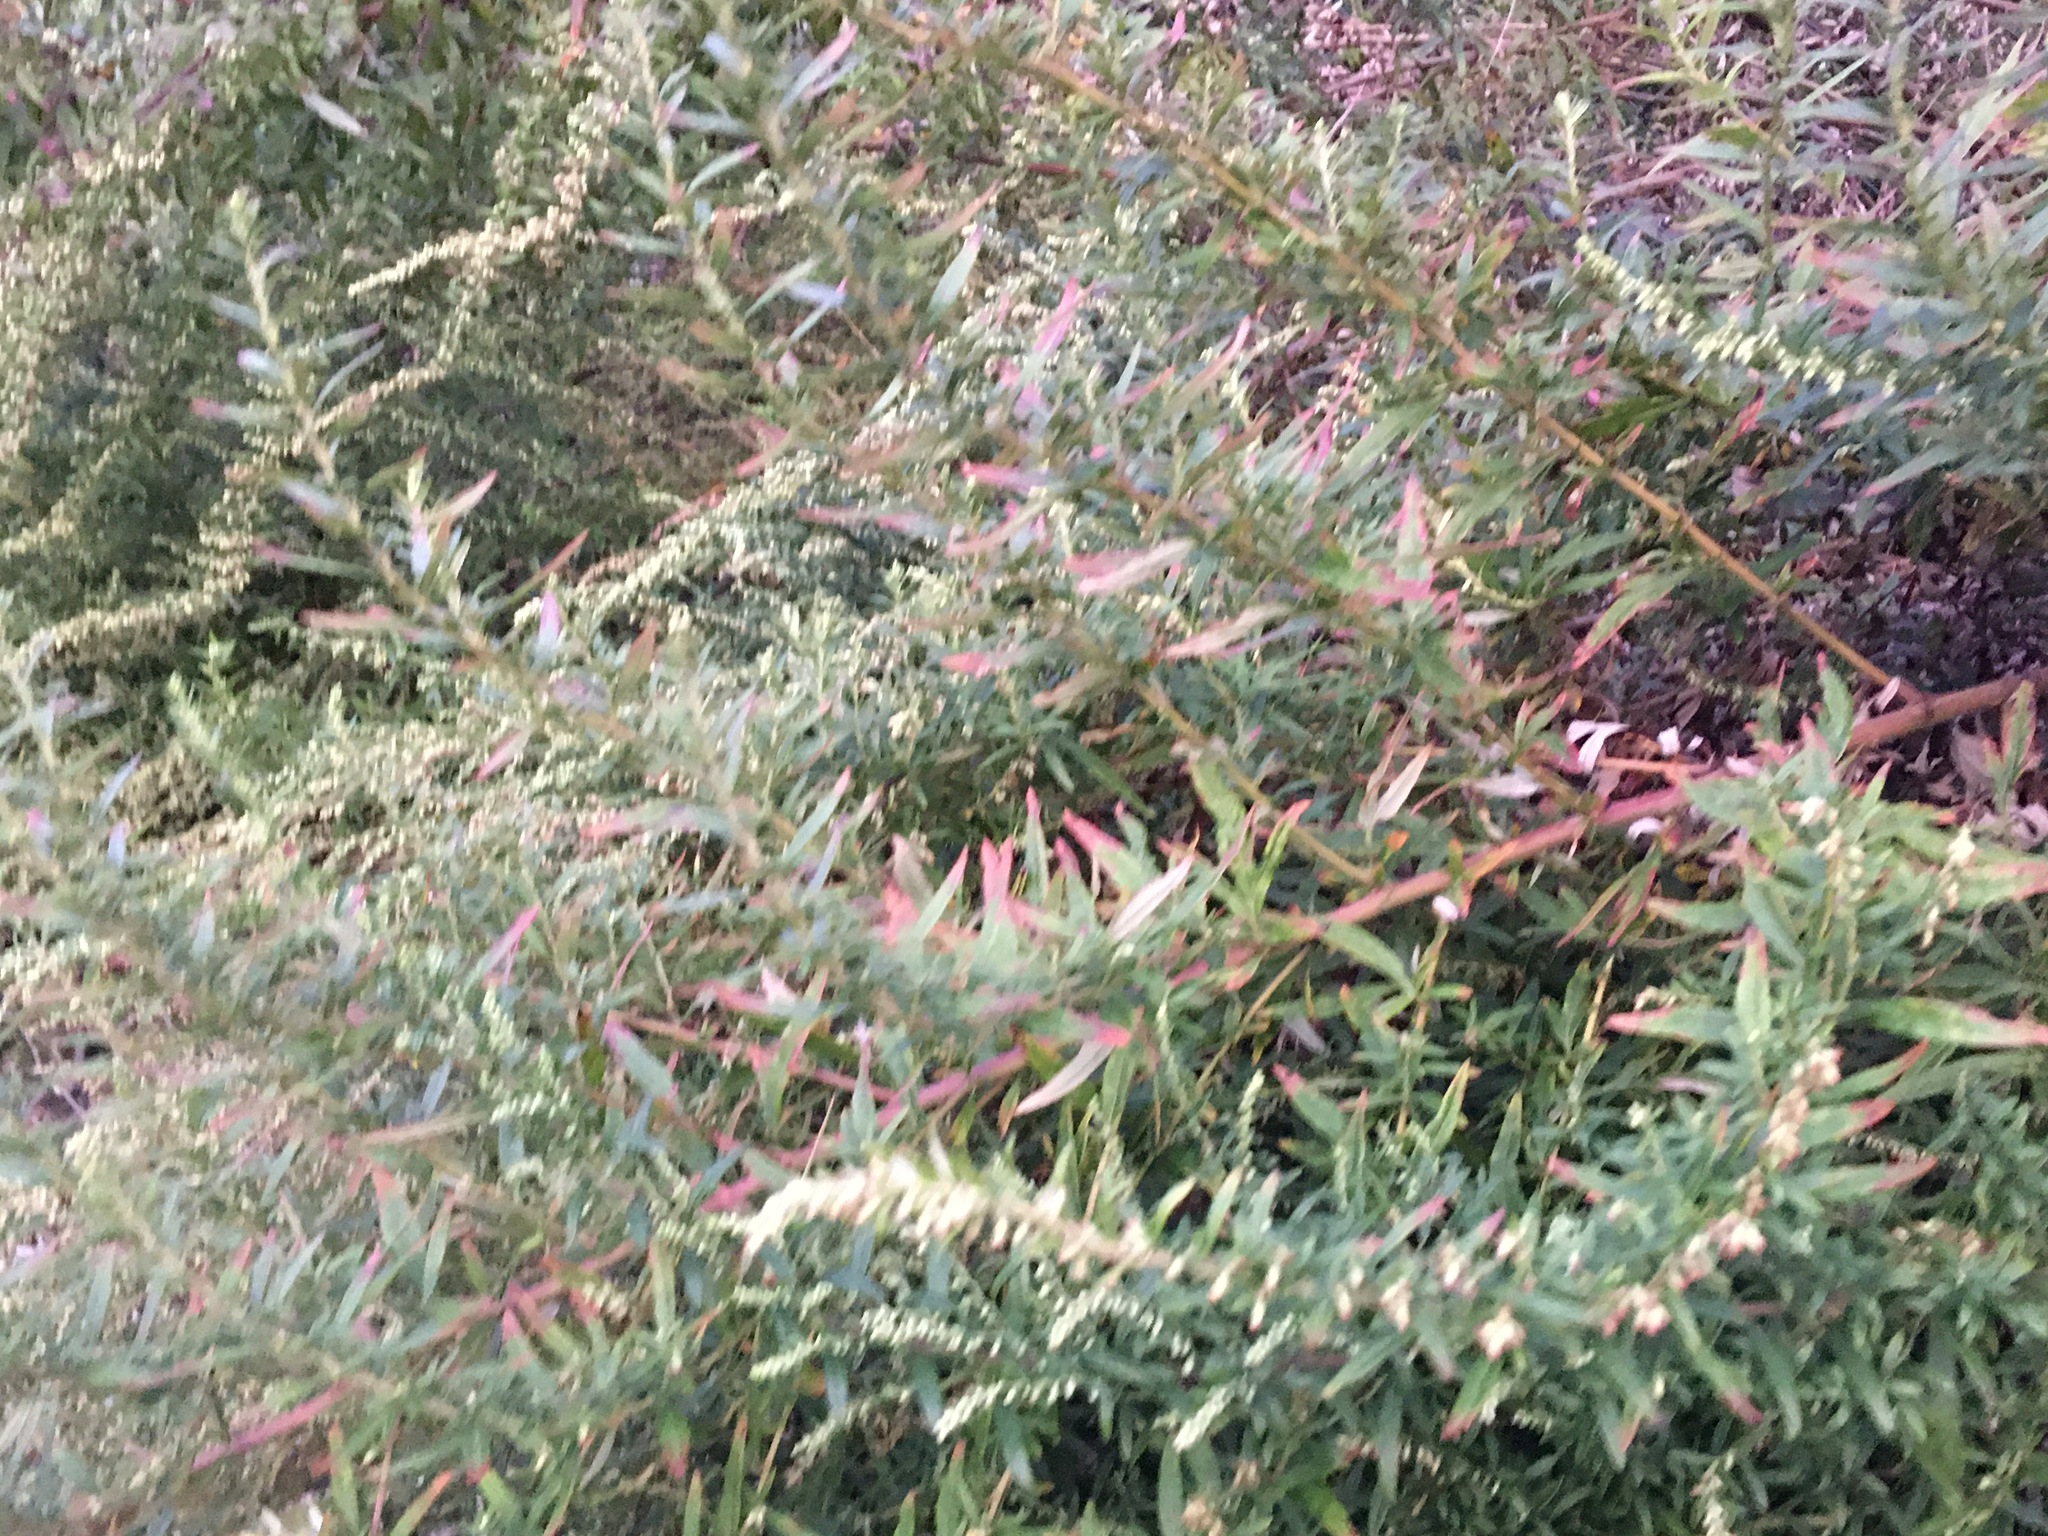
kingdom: Plantae
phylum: Tracheophyta
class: Magnoliopsida
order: Asterales
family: Asteraceae
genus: Artemisia
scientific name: Artemisia vulgaris
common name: Mugwort
